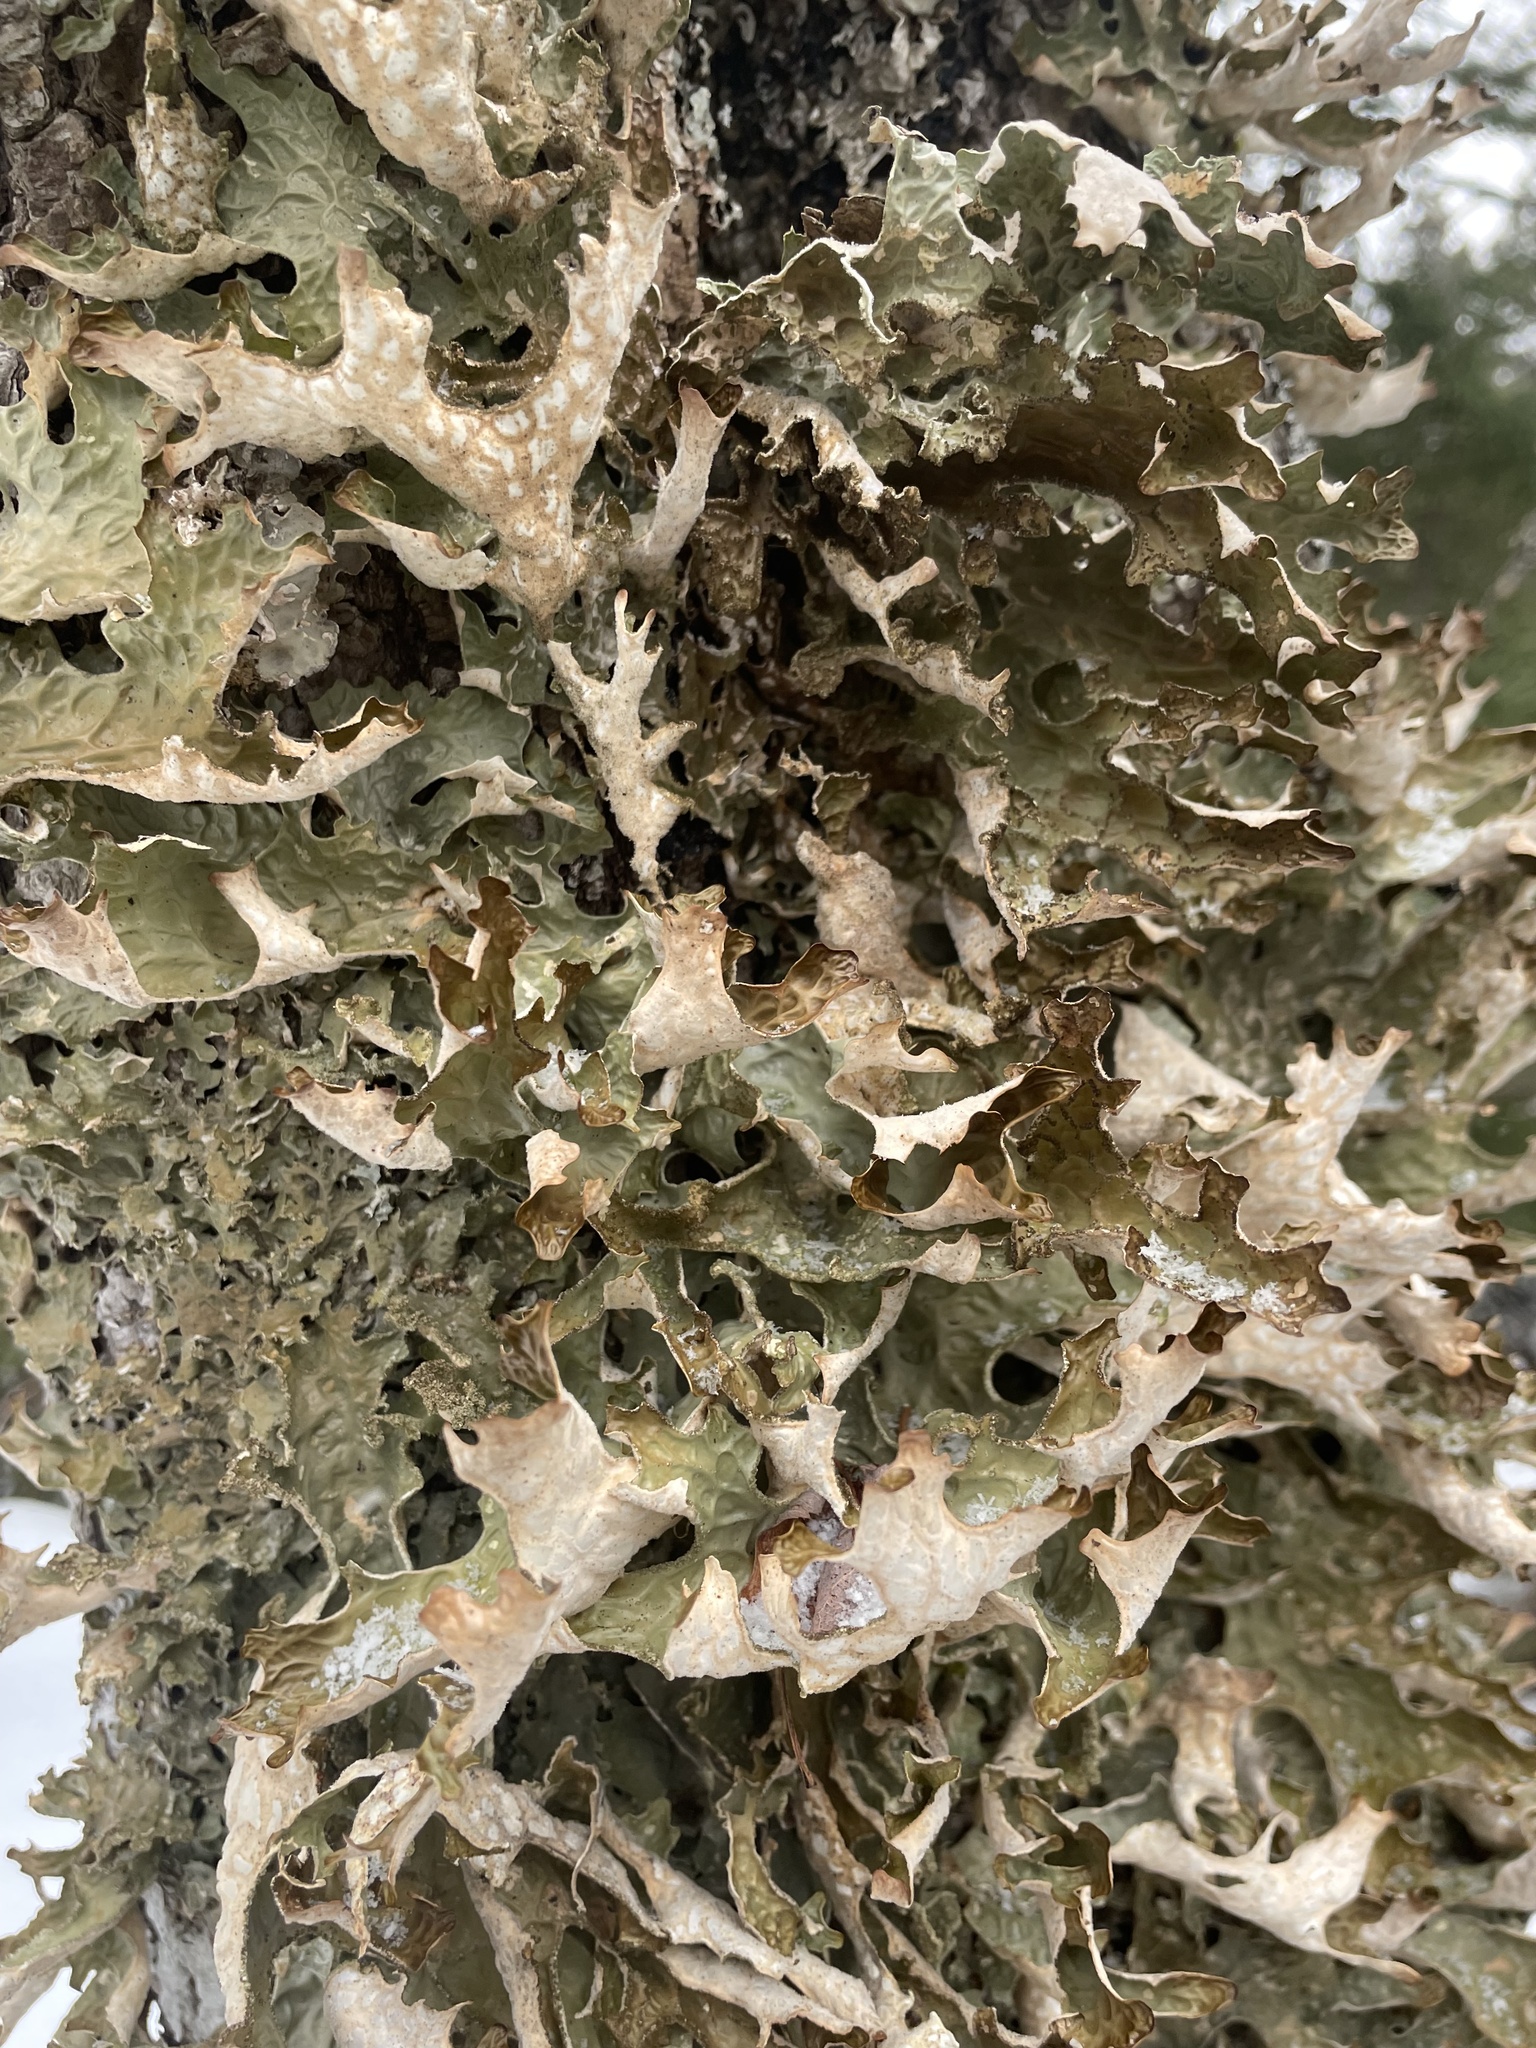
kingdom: Fungi
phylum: Ascomycota
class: Lecanoromycetes
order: Peltigerales
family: Lobariaceae
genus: Lobaria
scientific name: Lobaria pulmonaria
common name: Lungwort
